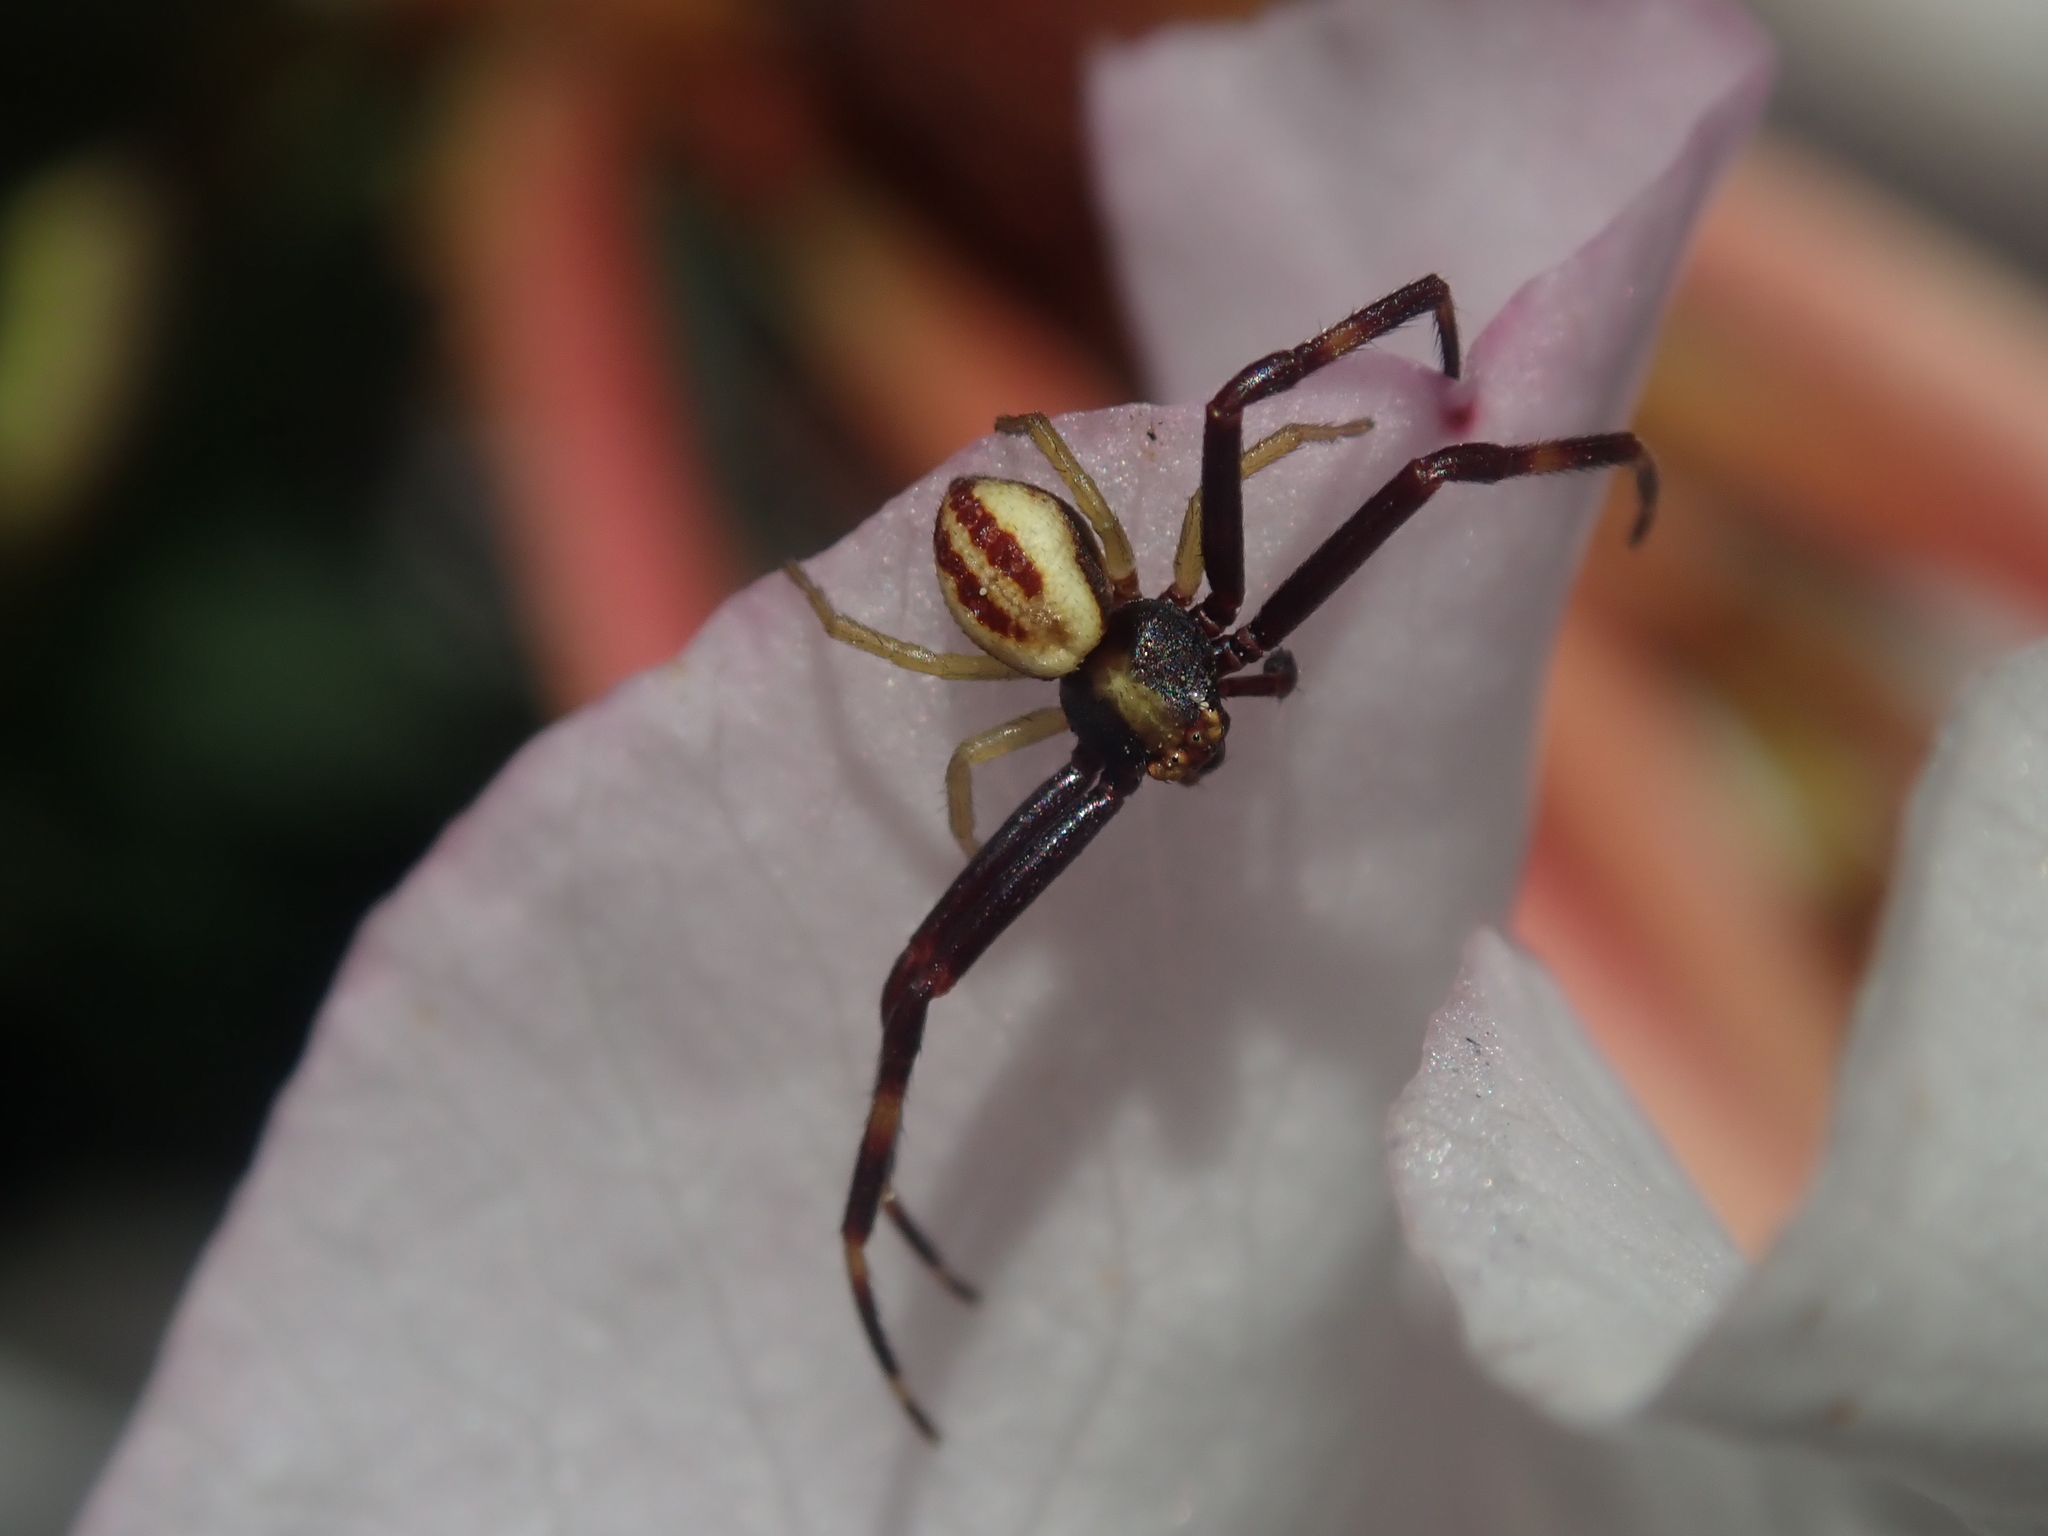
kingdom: Animalia
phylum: Arthropoda
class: Arachnida
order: Araneae
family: Thomisidae
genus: Misumena
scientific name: Misumena vatia
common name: Goldenrod crab spider
